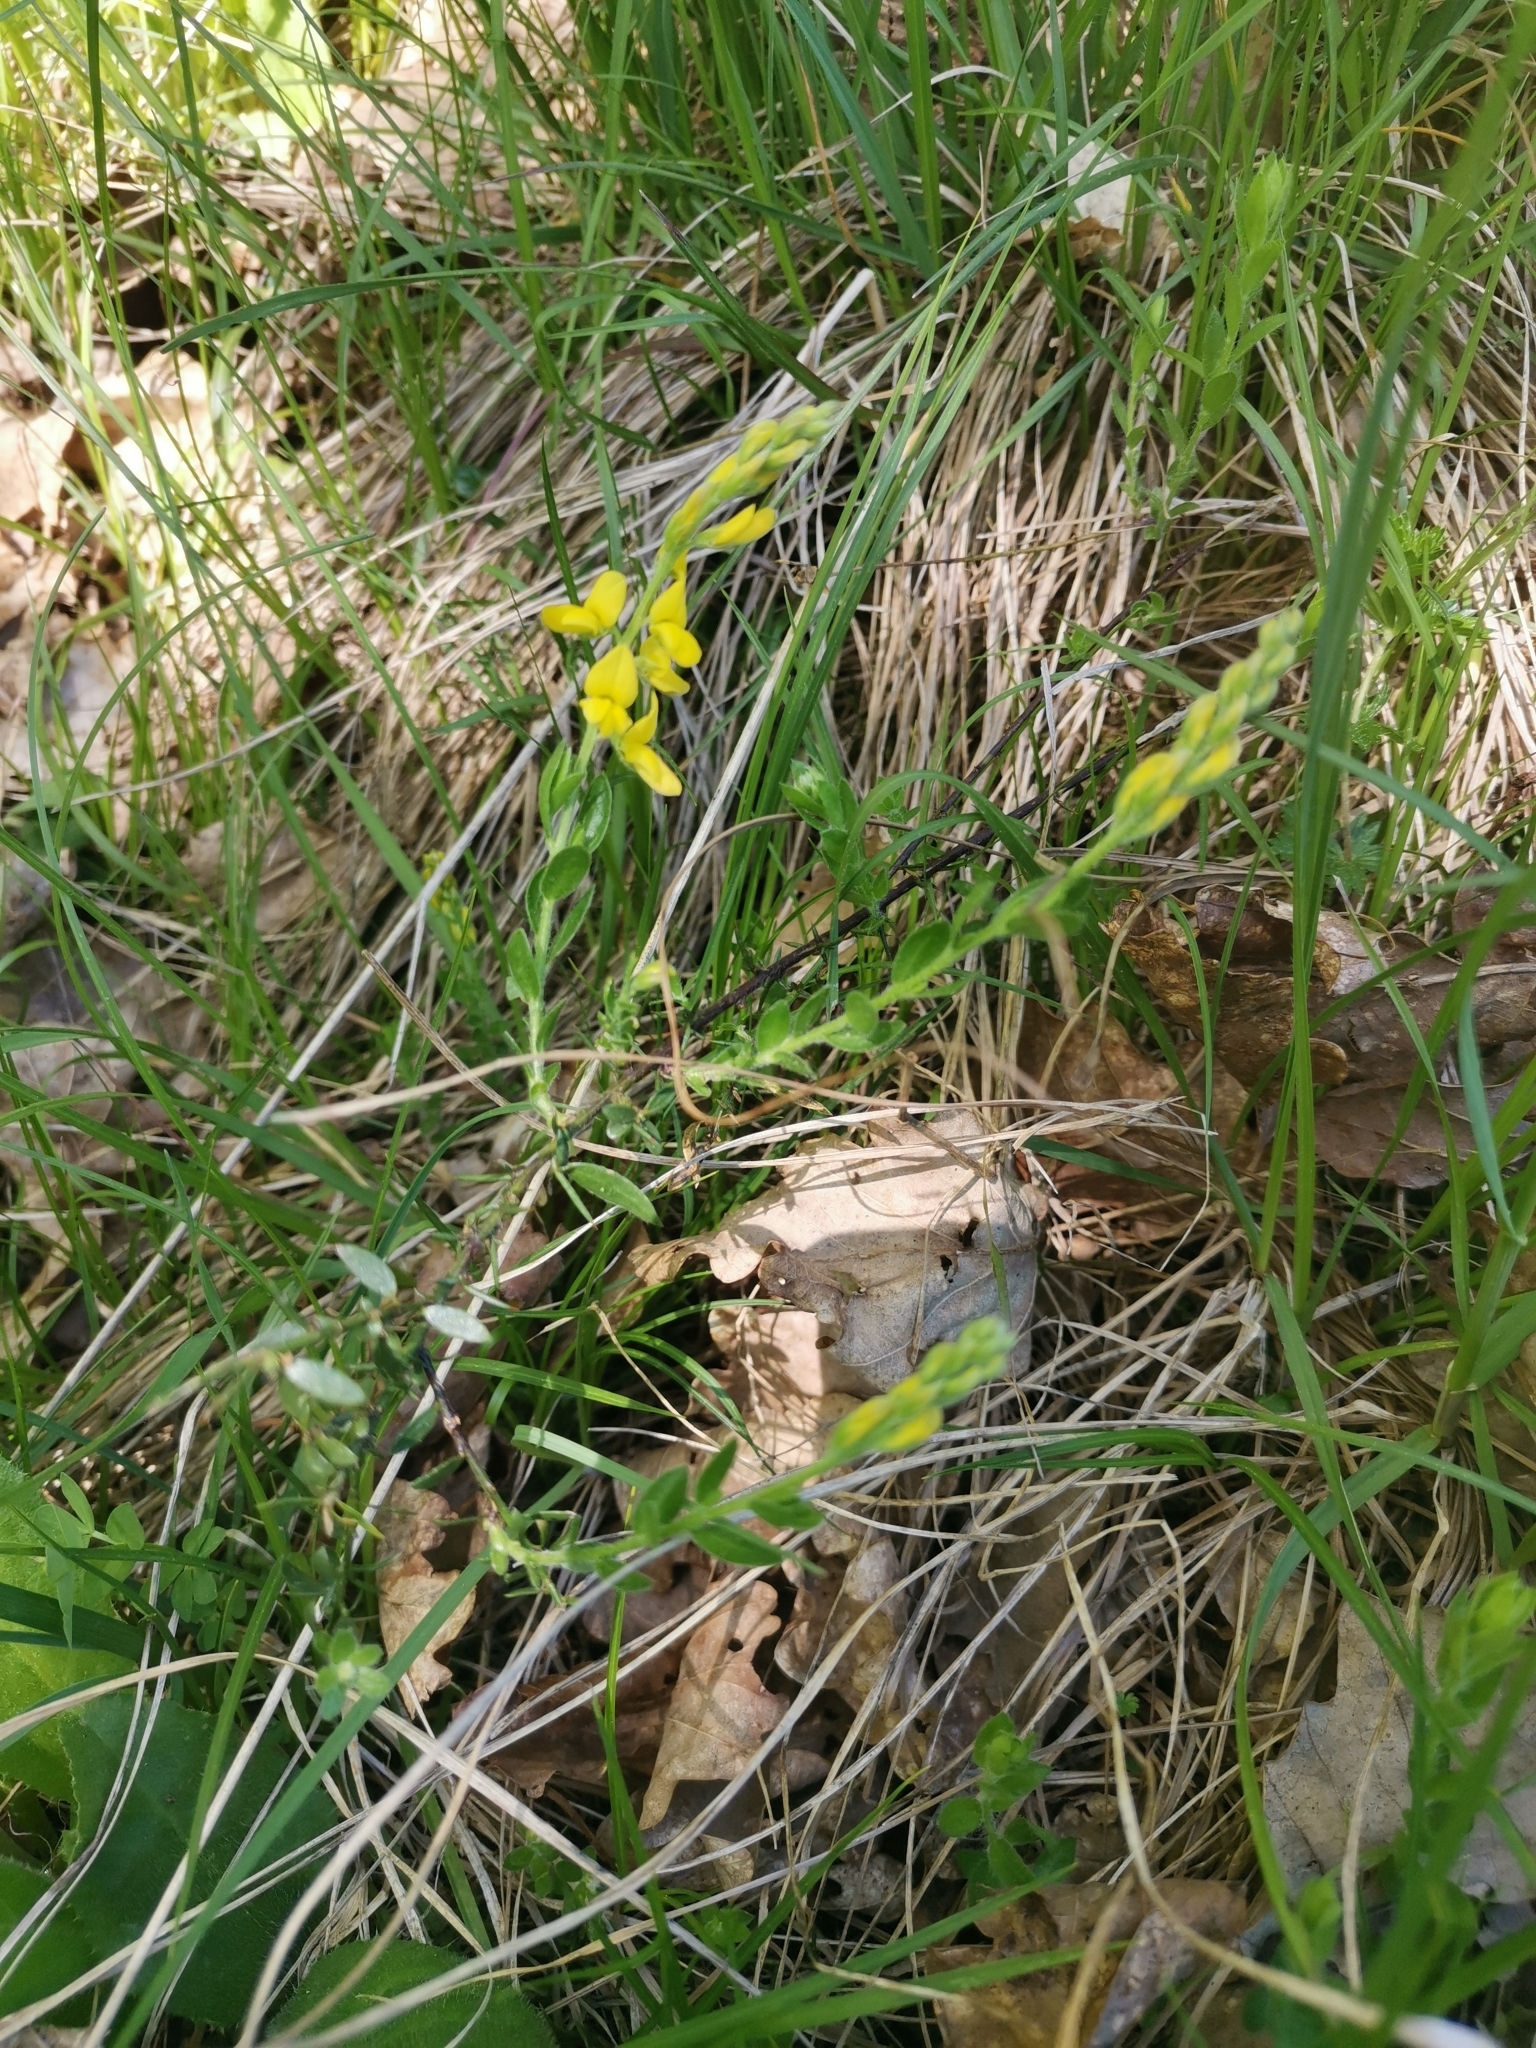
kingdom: Plantae
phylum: Tracheophyta
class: Magnoliopsida
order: Fabales
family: Fabaceae
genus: Genista
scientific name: Genista germanica
